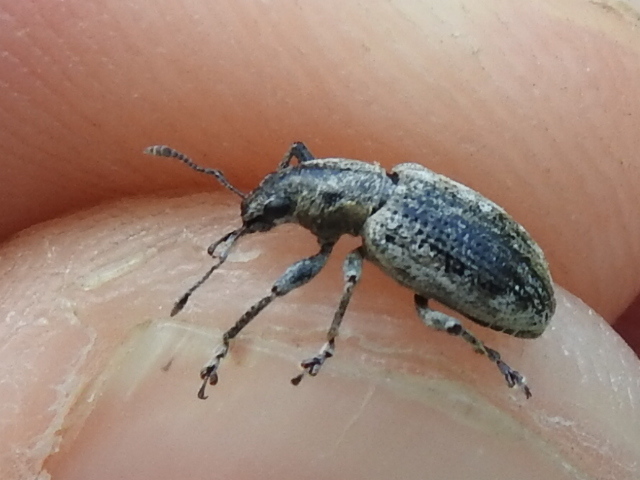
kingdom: Animalia
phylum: Arthropoda
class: Insecta
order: Coleoptera
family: Curculionidae
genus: Tanymecus
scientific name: Tanymecus confusus
